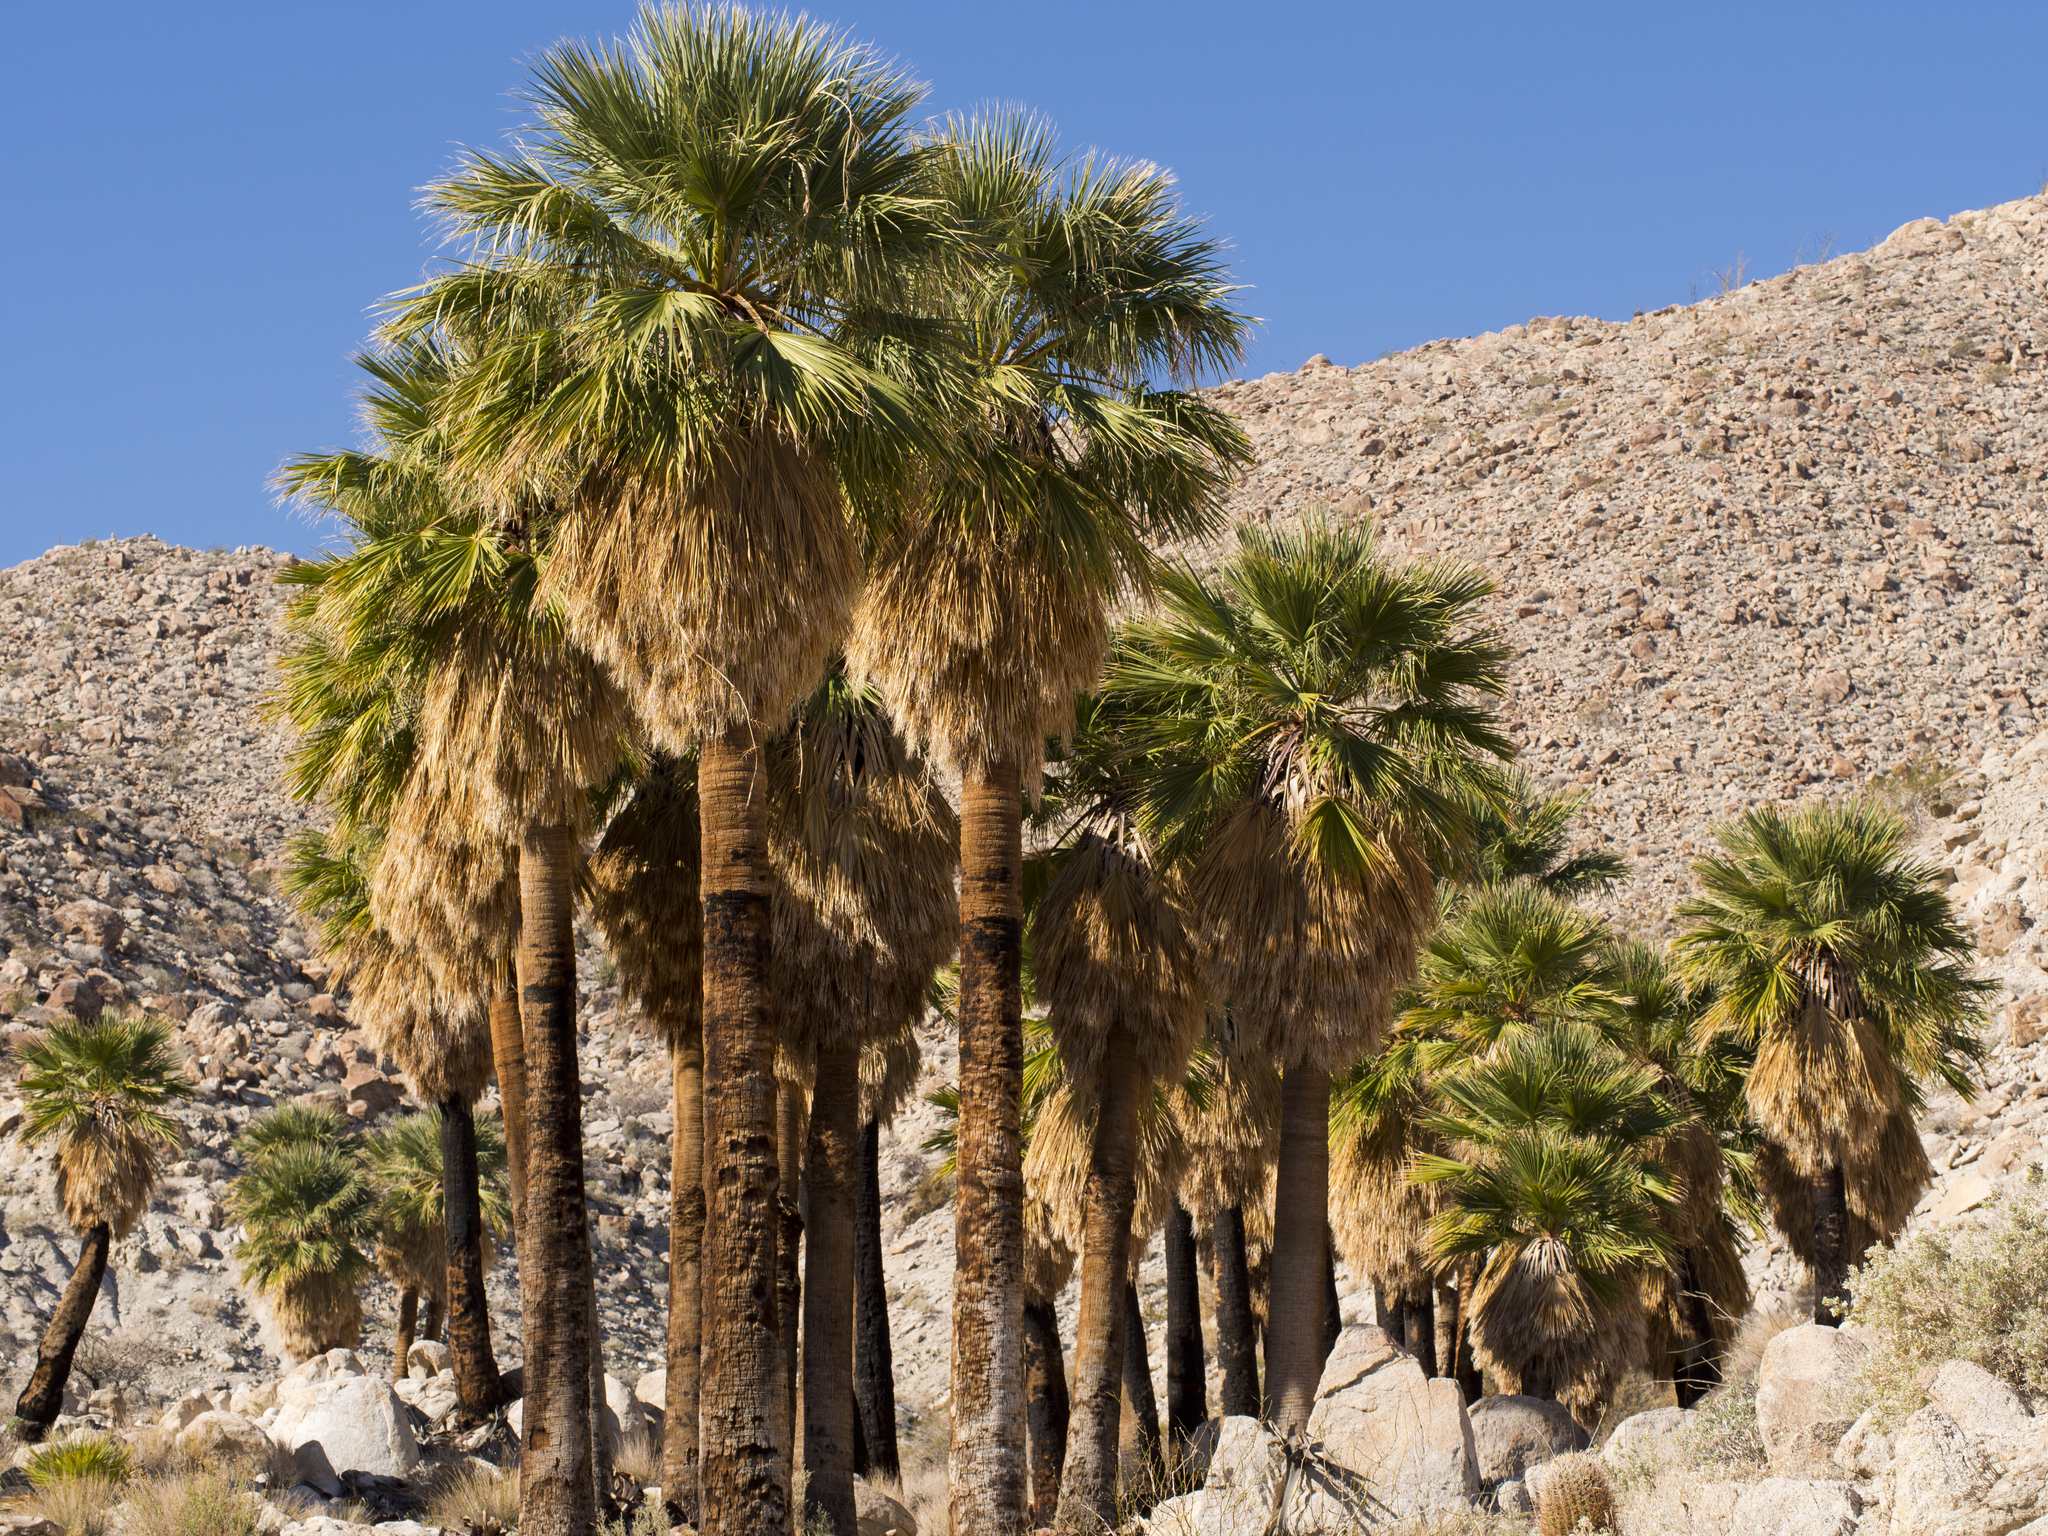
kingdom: Plantae
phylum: Tracheophyta
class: Liliopsida
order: Arecales
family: Arecaceae
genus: Washingtonia
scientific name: Washingtonia filifera
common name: California fan palm
